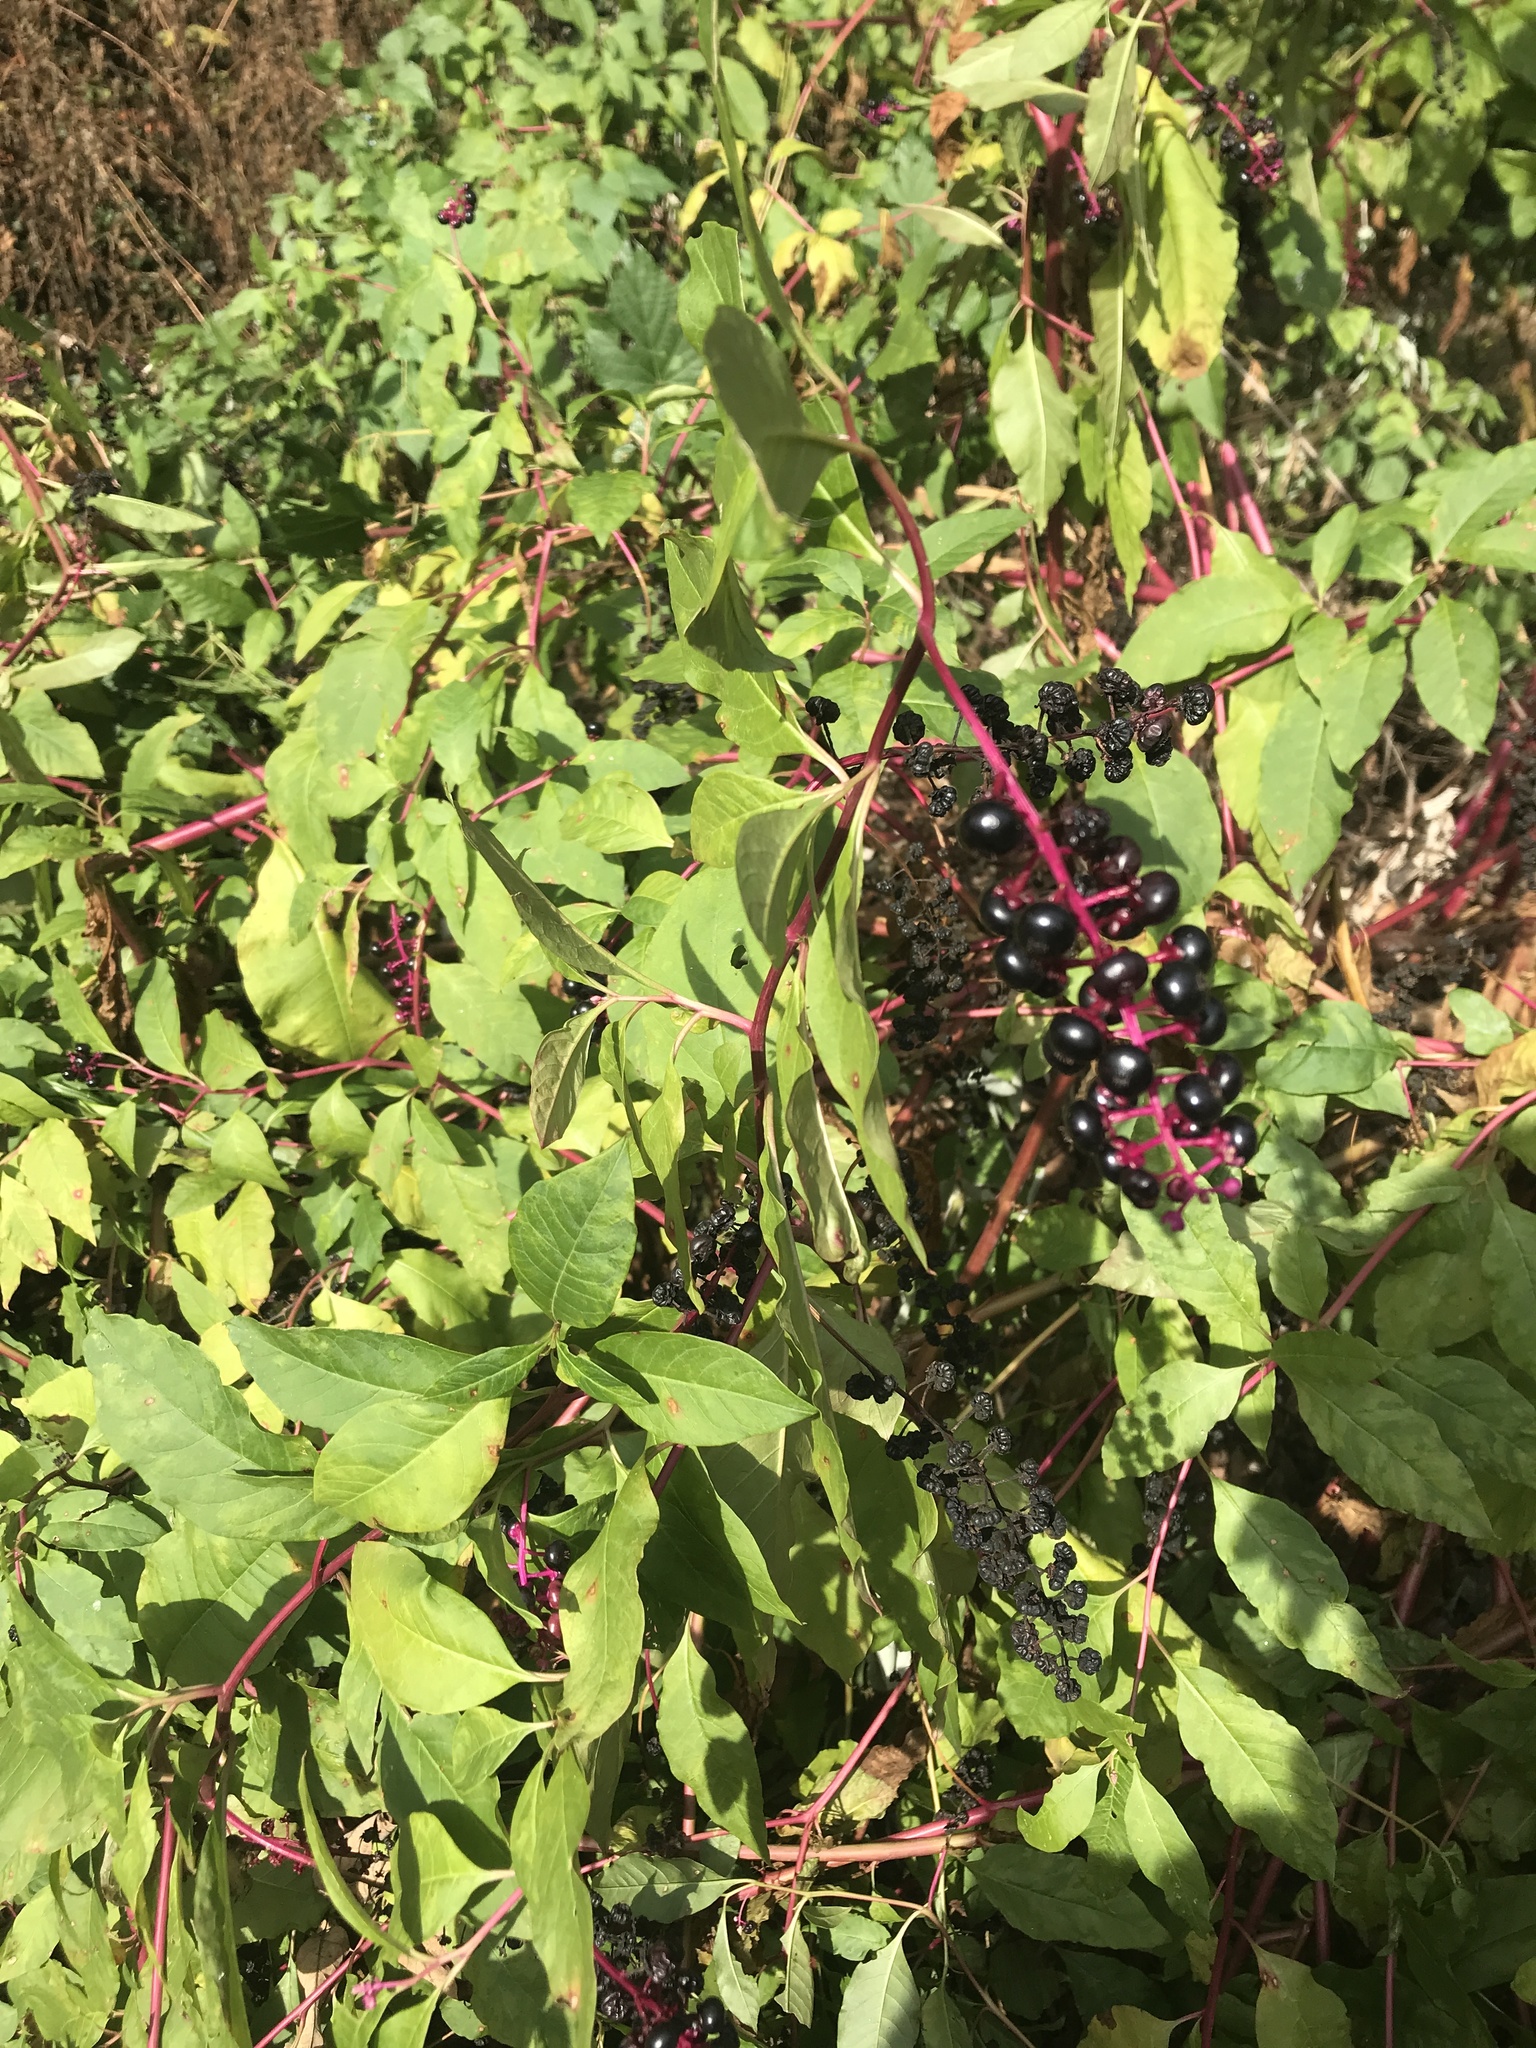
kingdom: Plantae
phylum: Tracheophyta
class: Magnoliopsida
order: Caryophyllales
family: Phytolaccaceae
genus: Phytolacca
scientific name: Phytolacca americana
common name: American pokeweed
